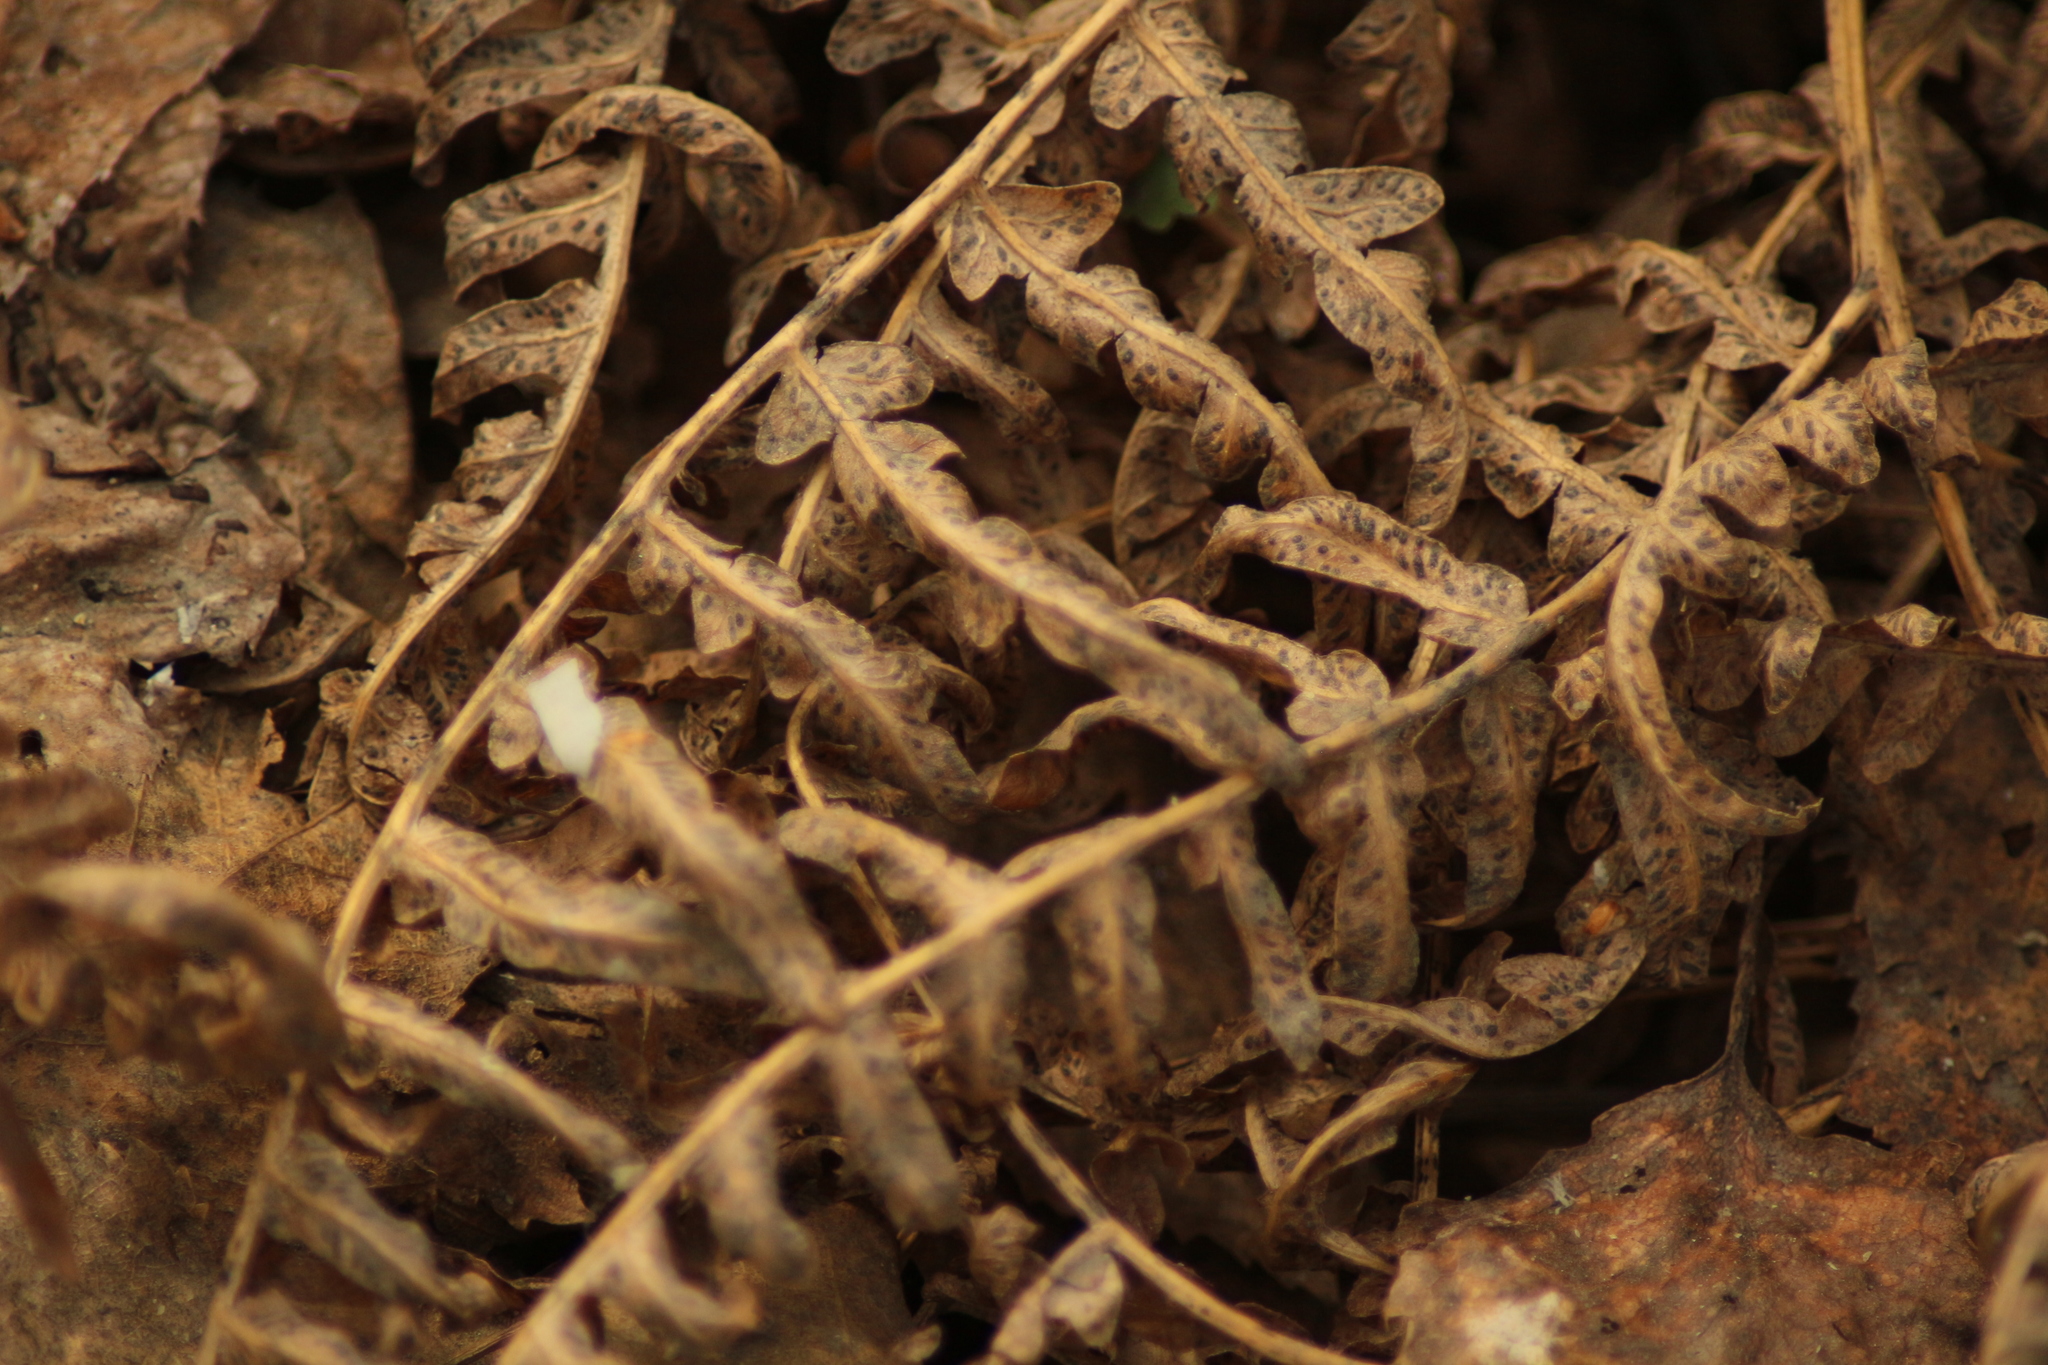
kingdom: Plantae
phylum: Tracheophyta
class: Polypodiopsida
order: Polypodiales
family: Dennstaedtiaceae
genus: Pteridium
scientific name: Pteridium aquilinum
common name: Bracken
